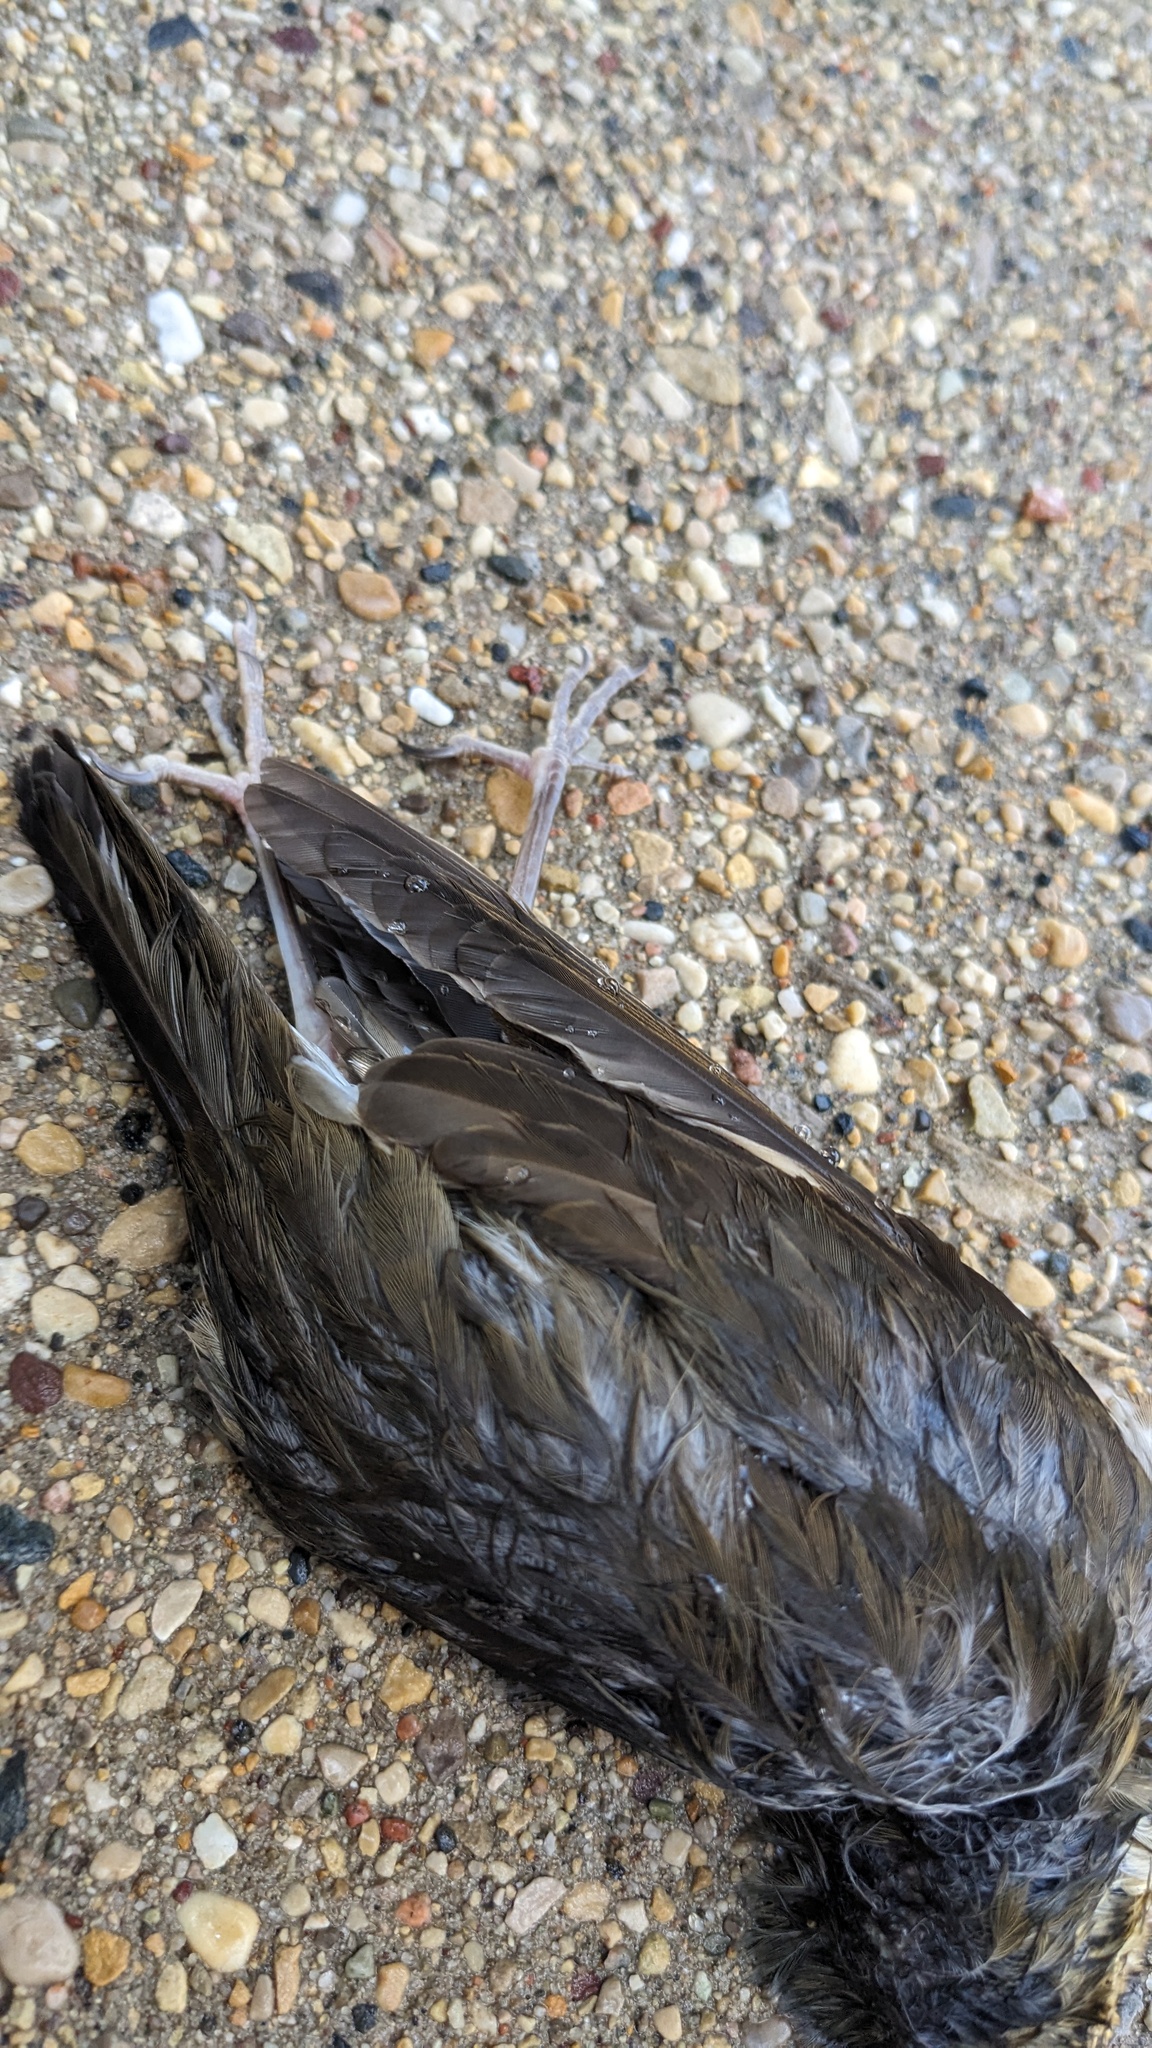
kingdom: Animalia
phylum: Chordata
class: Aves
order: Passeriformes
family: Parulidae
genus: Geothlypis
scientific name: Geothlypis trichas
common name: Common yellowthroat
